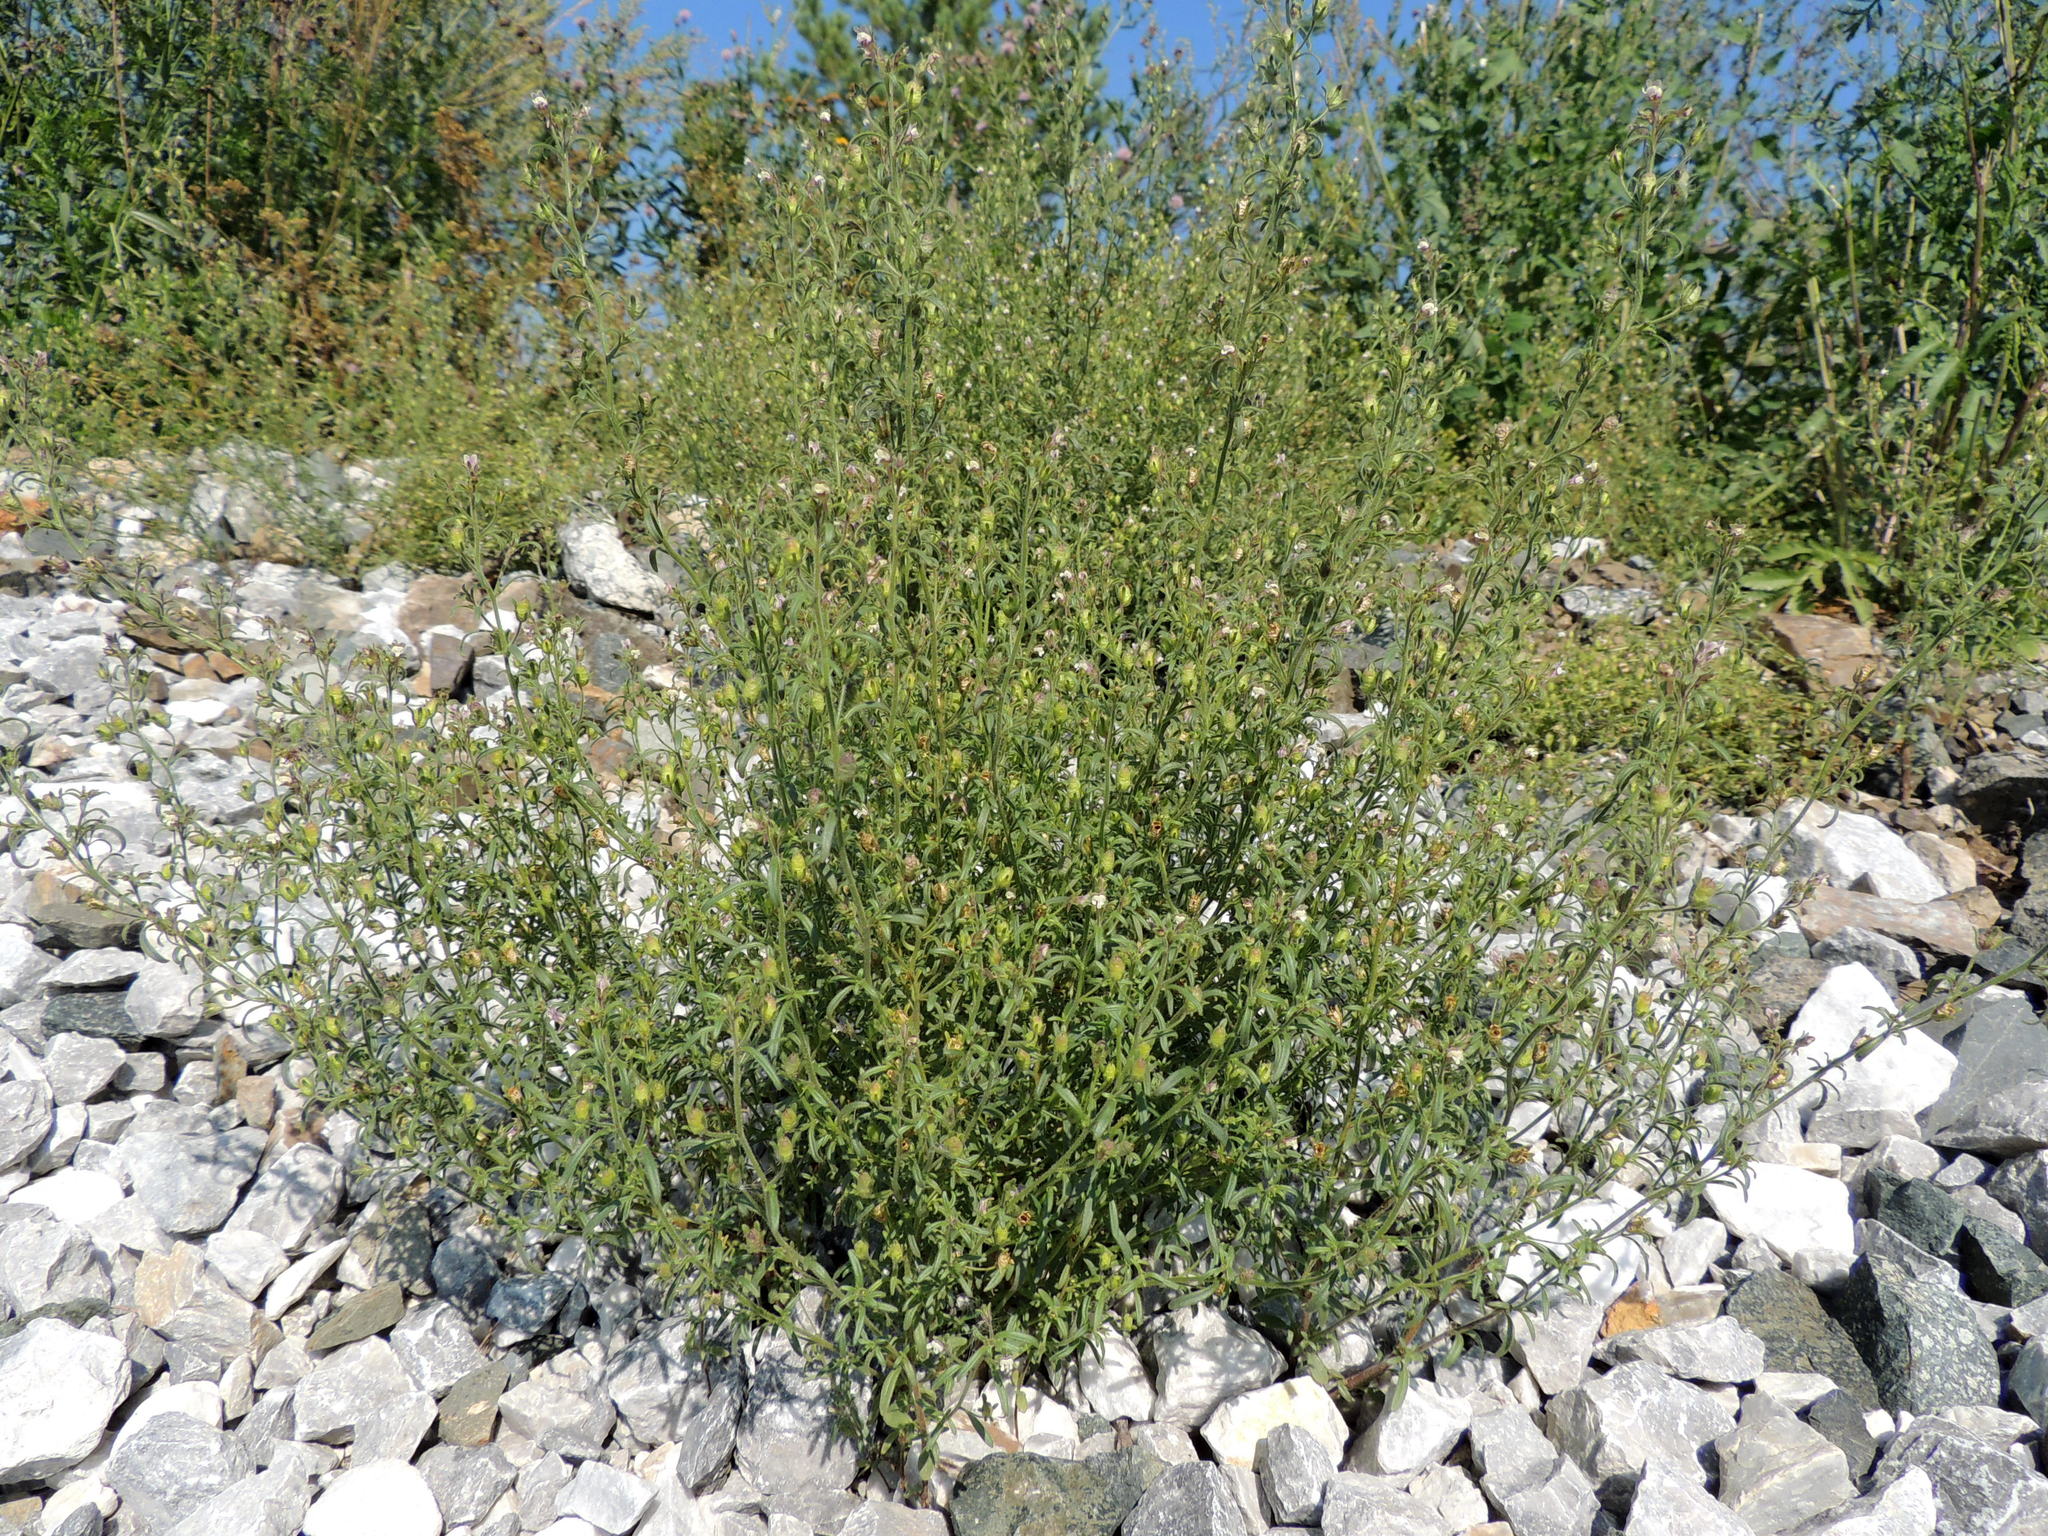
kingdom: Plantae
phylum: Tracheophyta
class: Magnoliopsida
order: Boraginales
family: Boraginaceae
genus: Lappula
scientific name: Lappula squarrosa
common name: European stickseed
